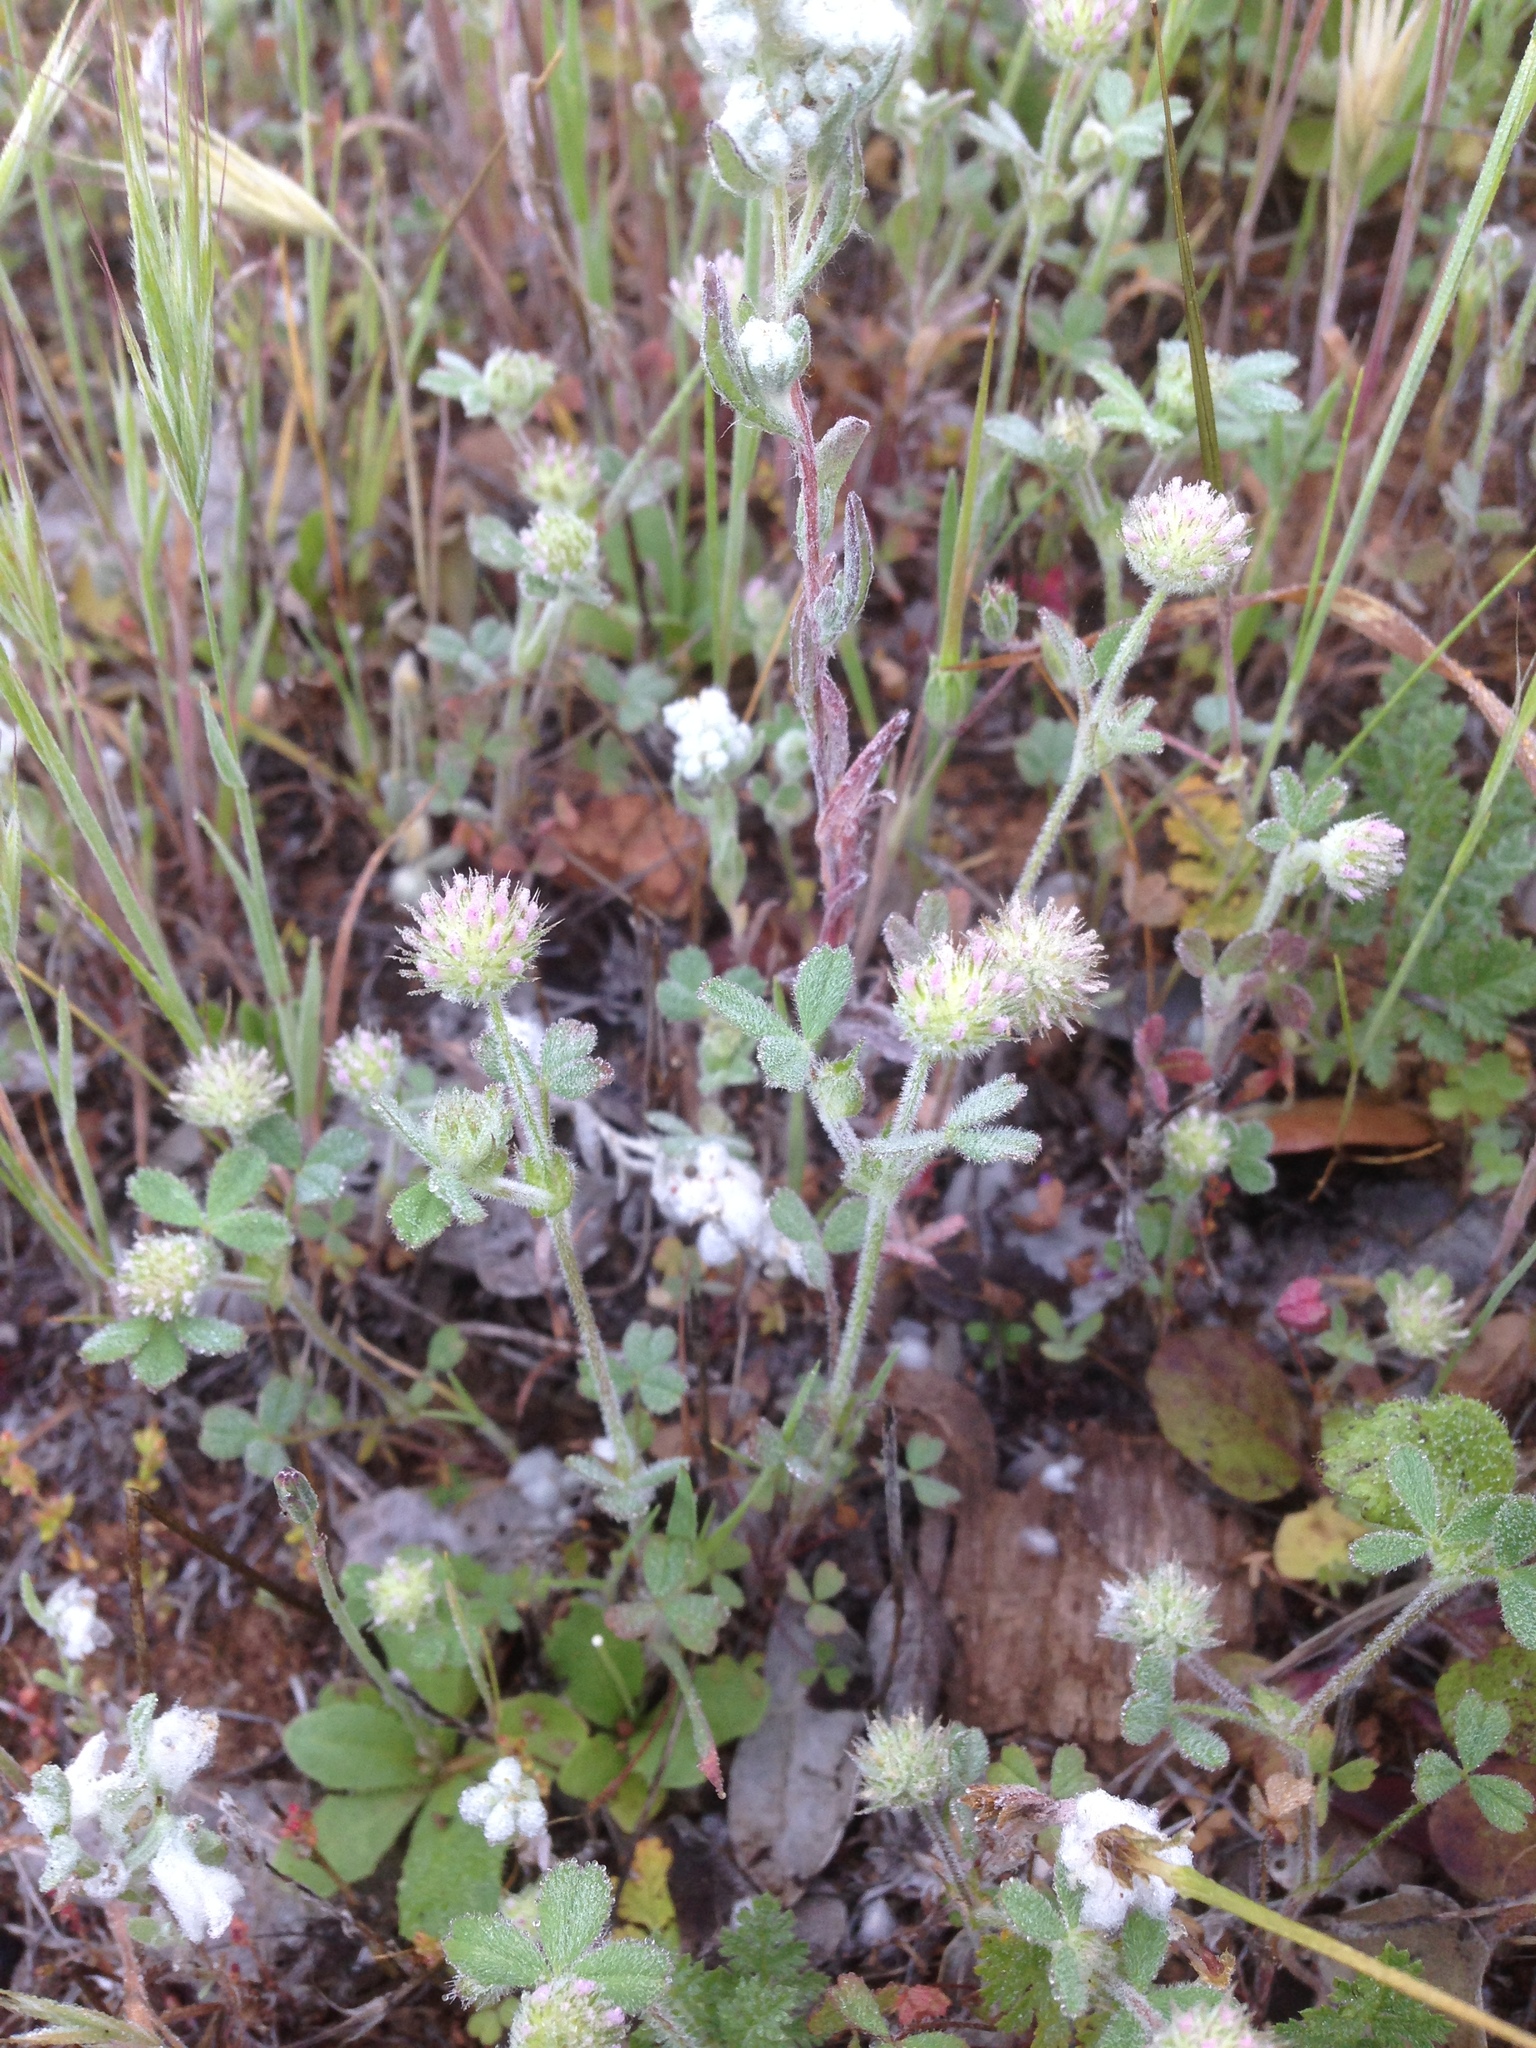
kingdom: Plantae
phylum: Tracheophyta
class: Magnoliopsida
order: Fabales
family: Fabaceae
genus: Trifolium
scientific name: Trifolium microcephalum
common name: Maiden clover
